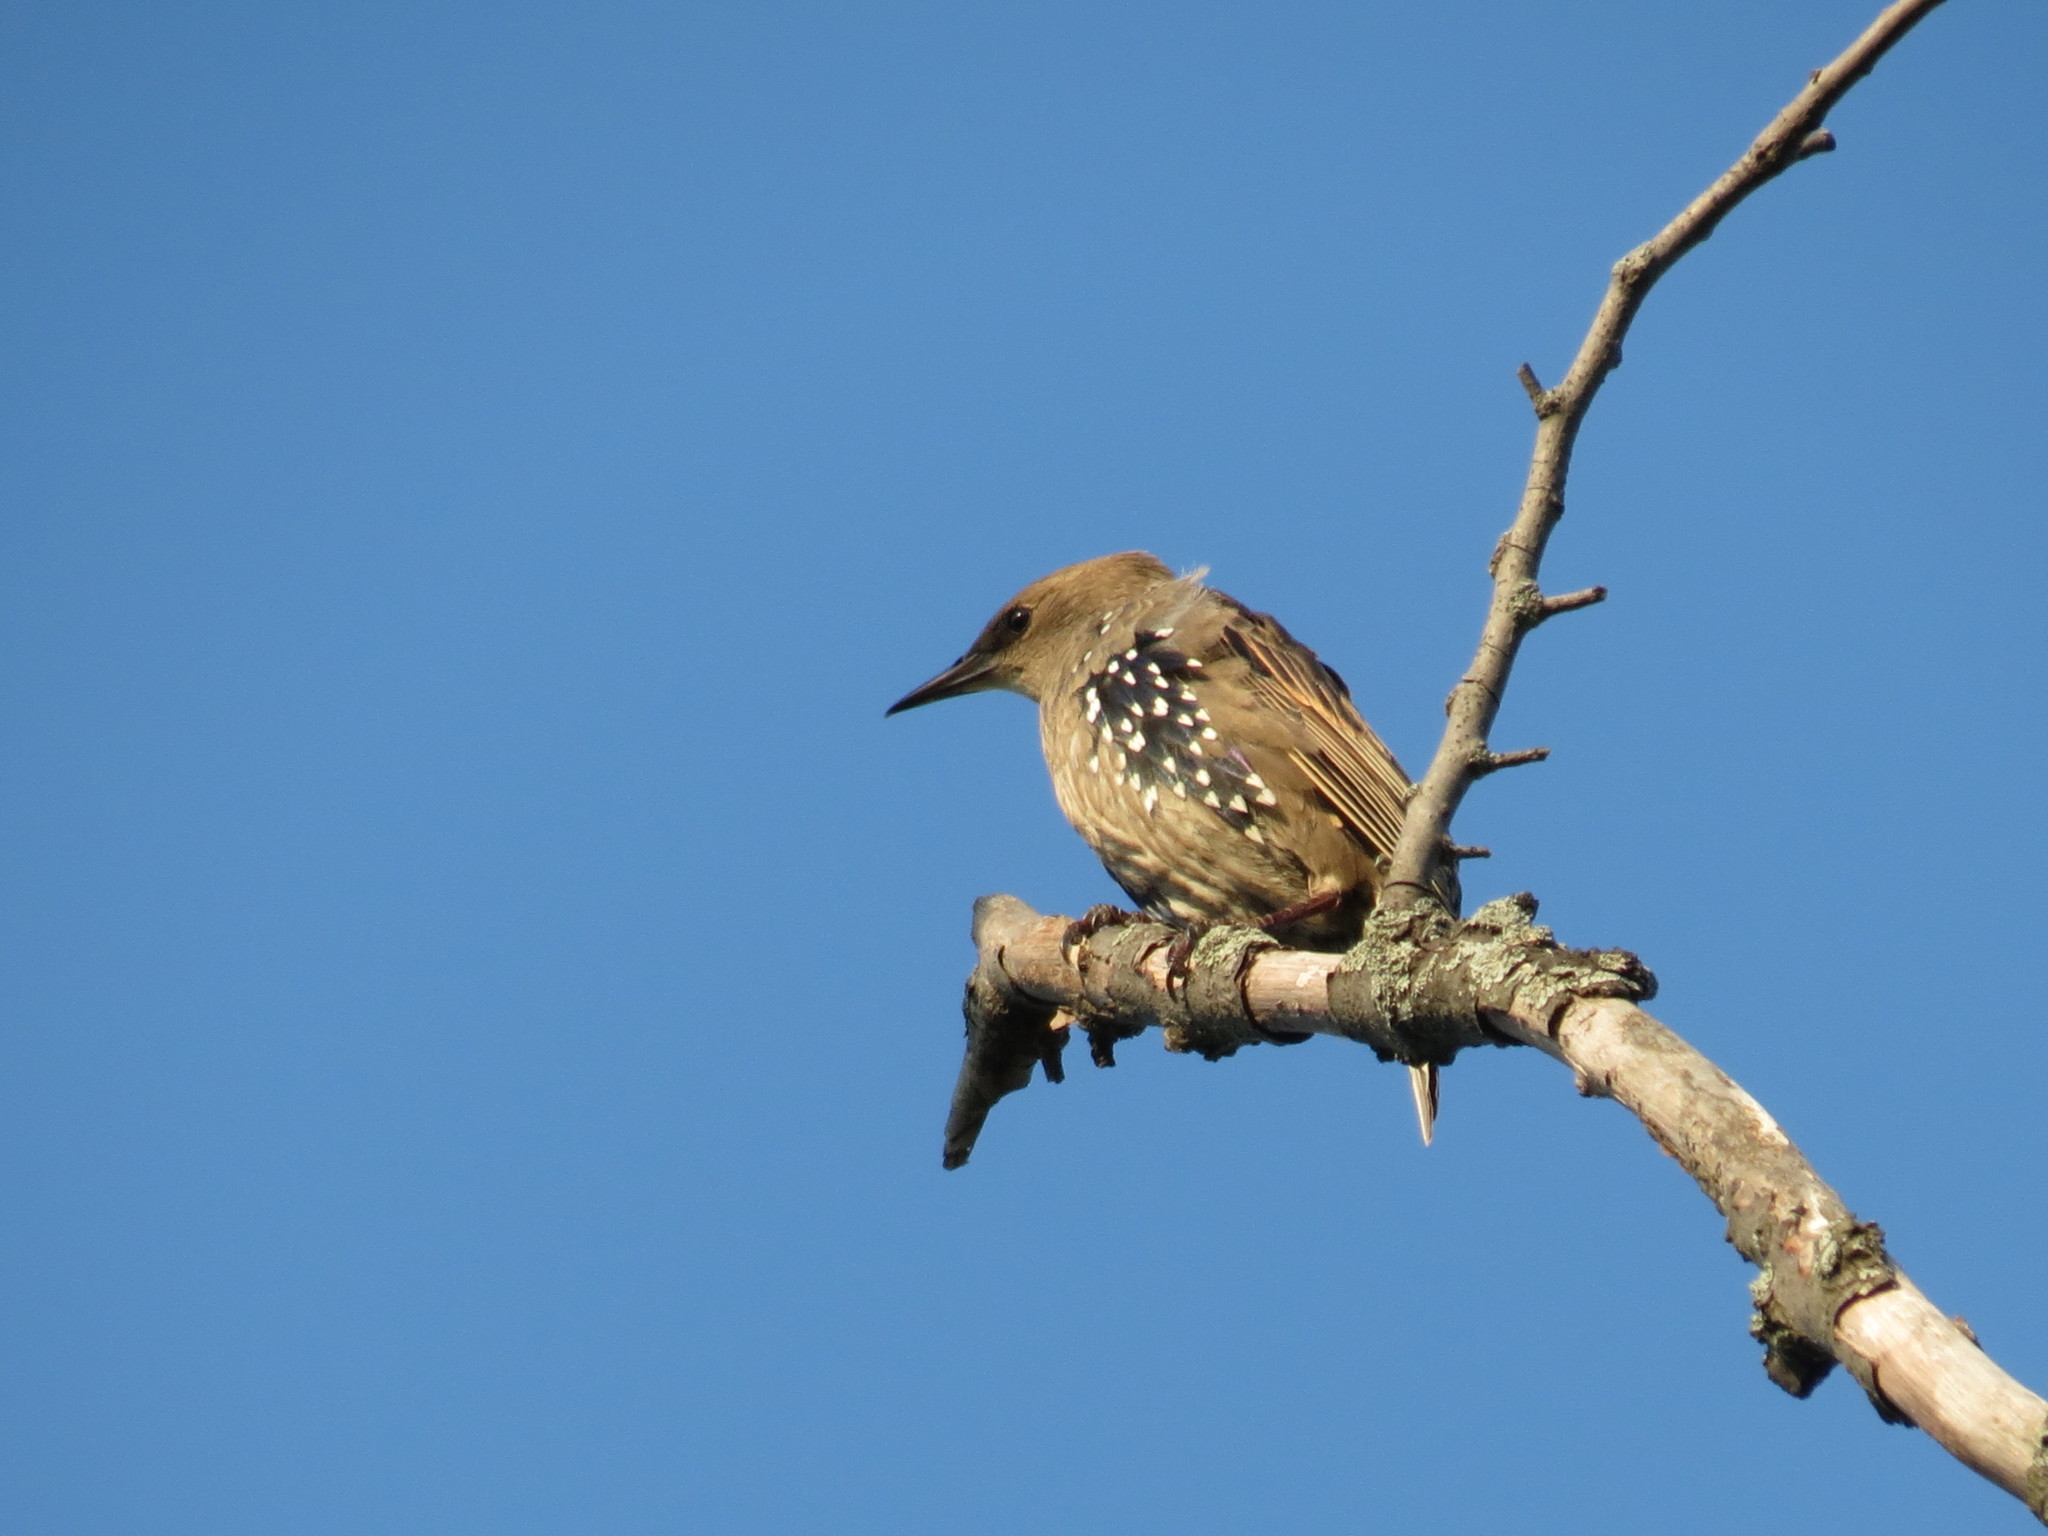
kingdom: Animalia
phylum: Chordata
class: Aves
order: Passeriformes
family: Sturnidae
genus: Sturnus
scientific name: Sturnus vulgaris
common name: Common starling
